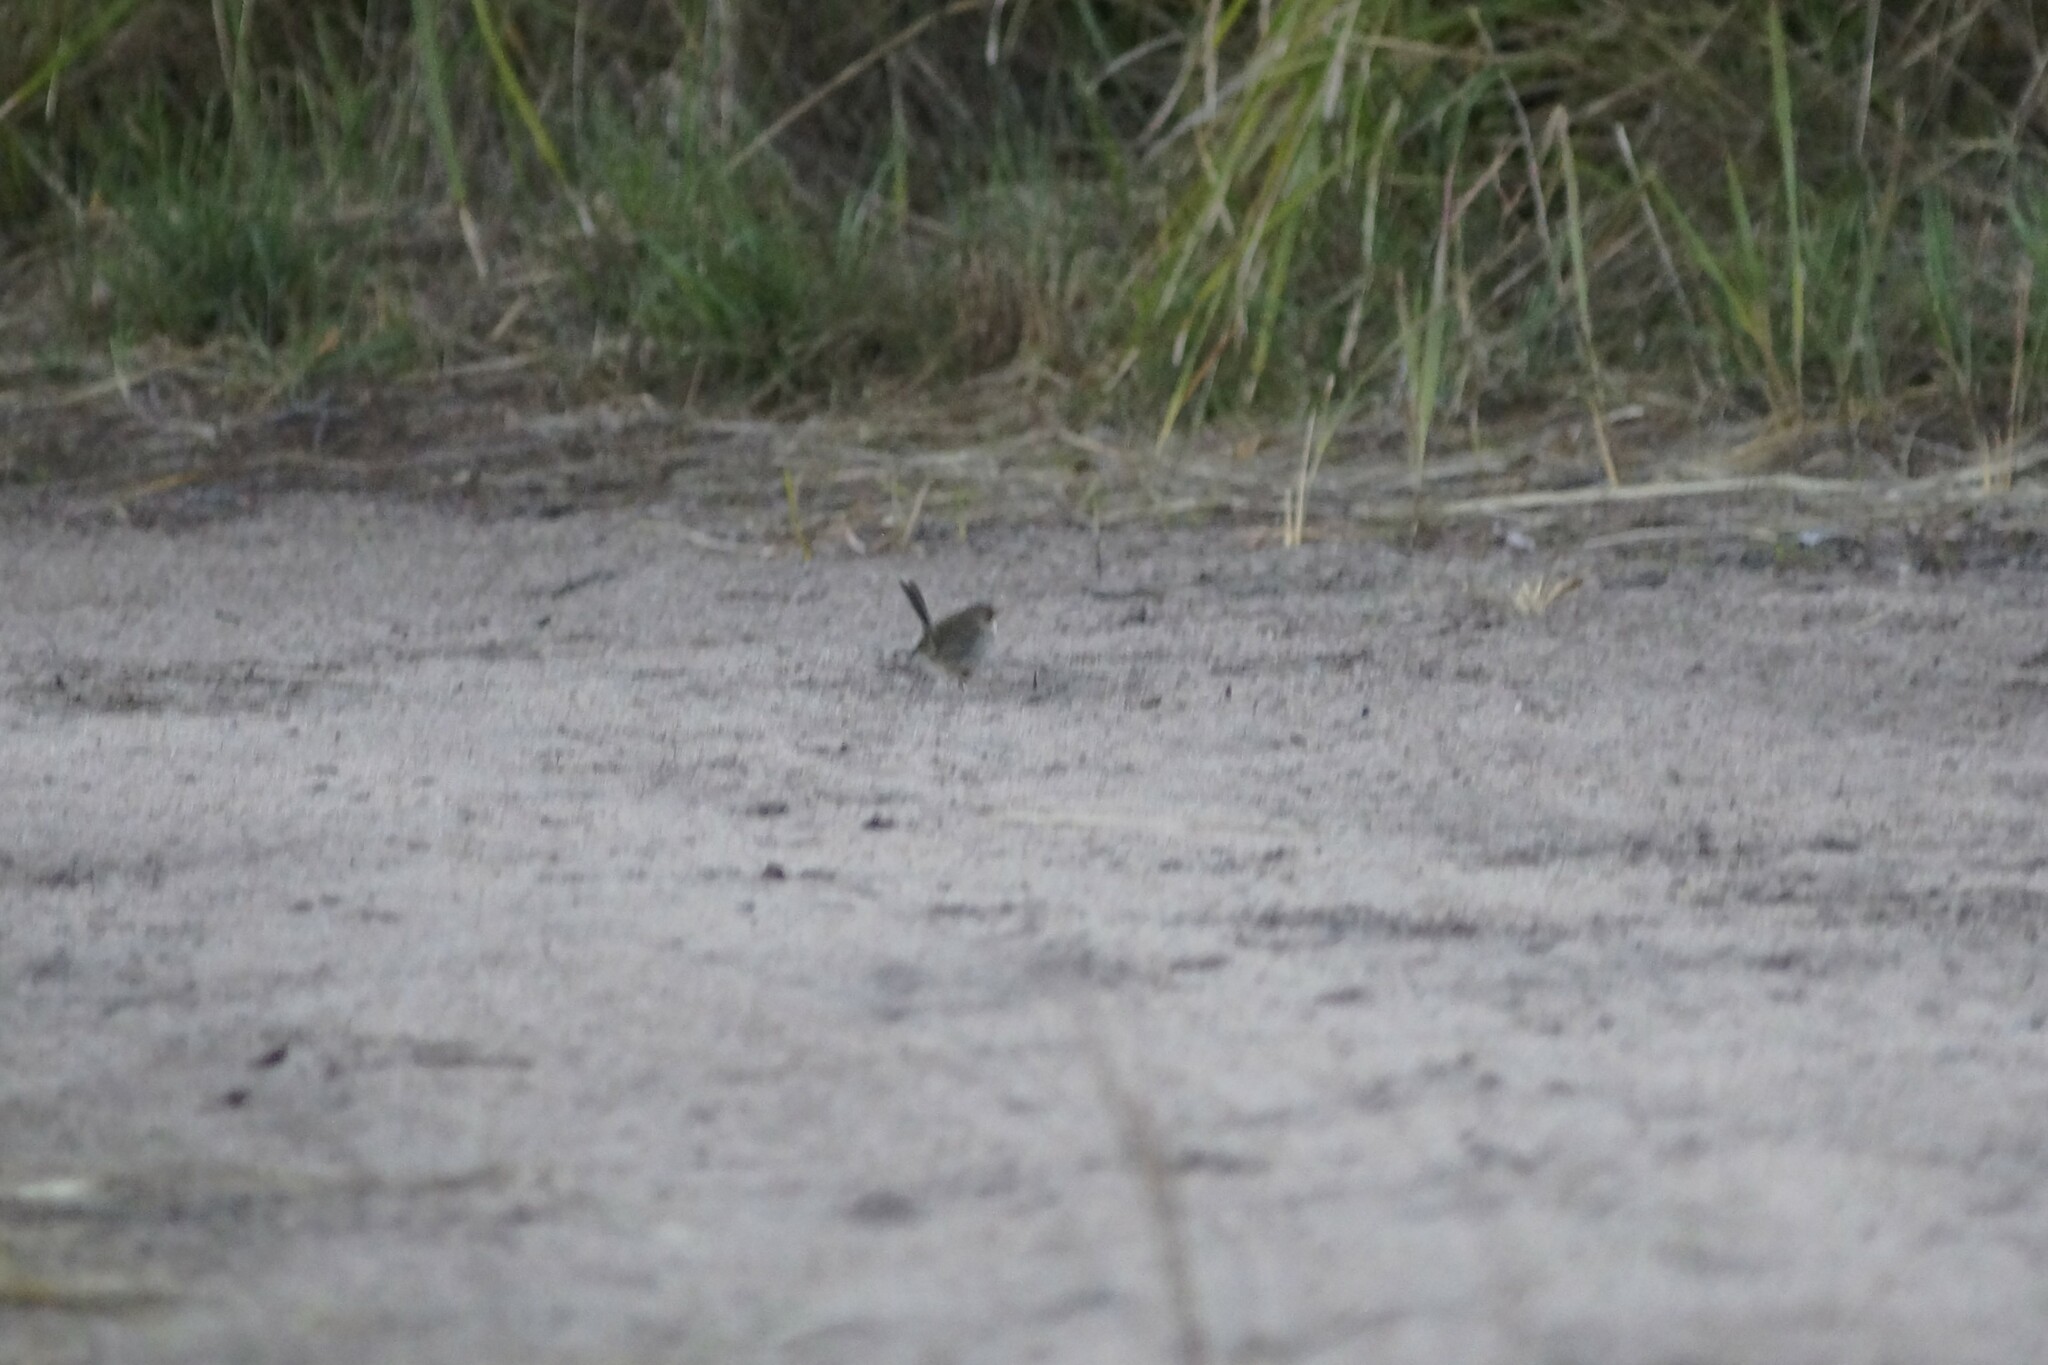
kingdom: Animalia
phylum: Chordata
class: Aves
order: Passeriformes
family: Maluridae
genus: Malurus
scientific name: Malurus cyaneus
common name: Superb fairywren
